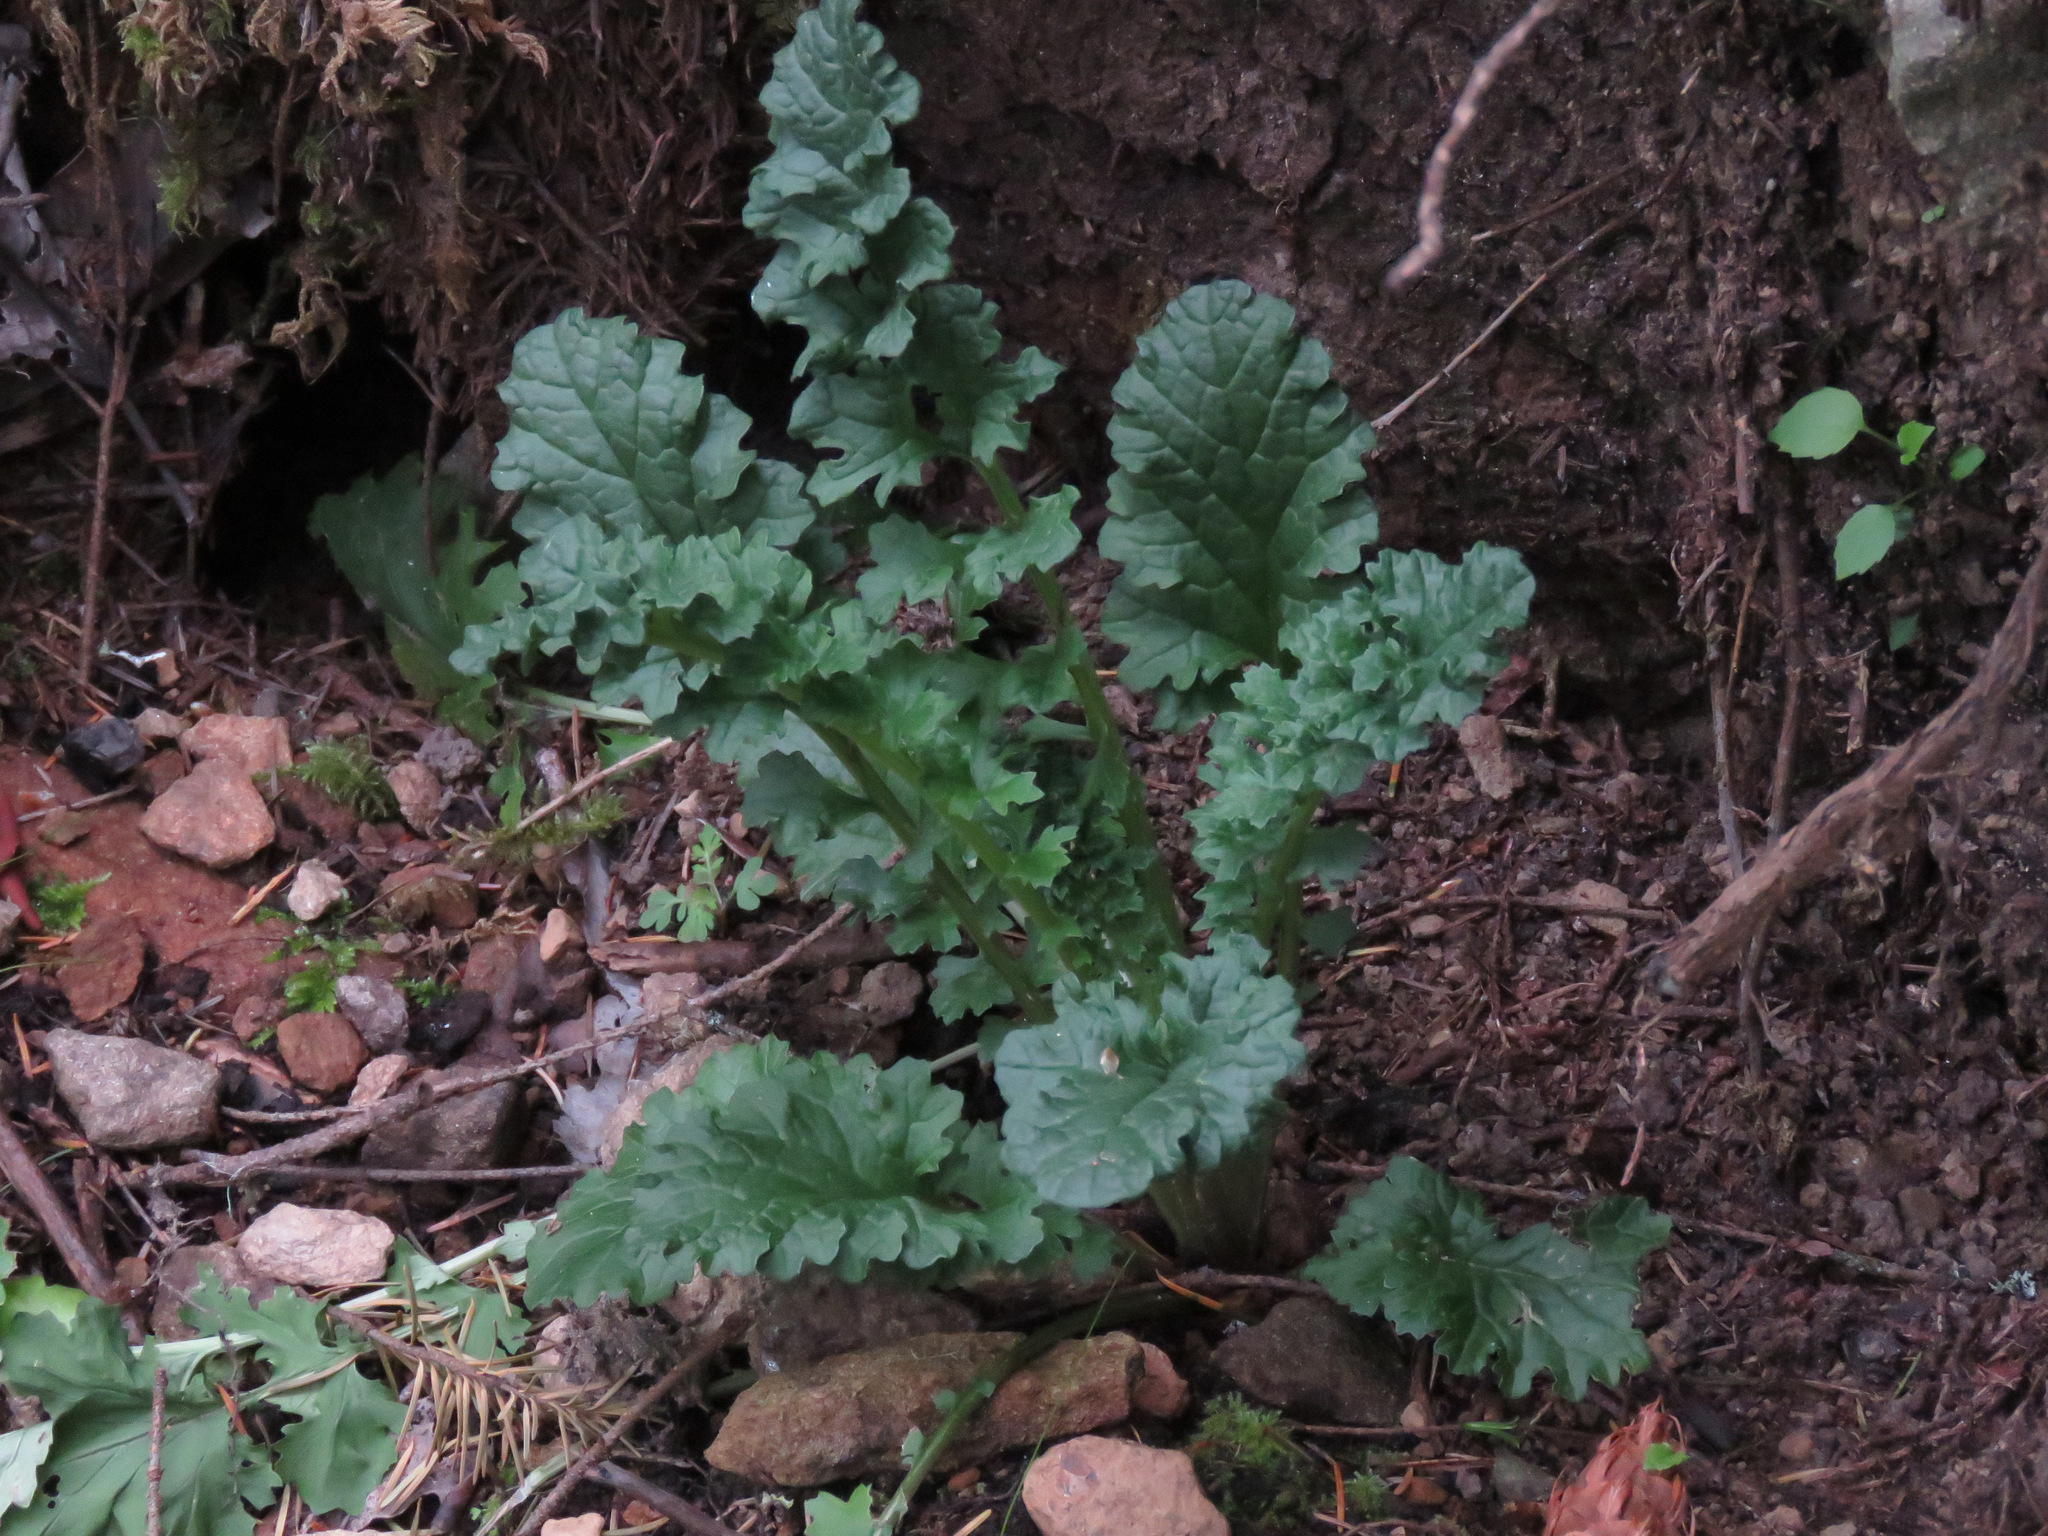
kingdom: Plantae
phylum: Tracheophyta
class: Magnoliopsida
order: Asterales
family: Asteraceae
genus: Jacobaea
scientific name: Jacobaea vulgaris
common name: Stinking willie
